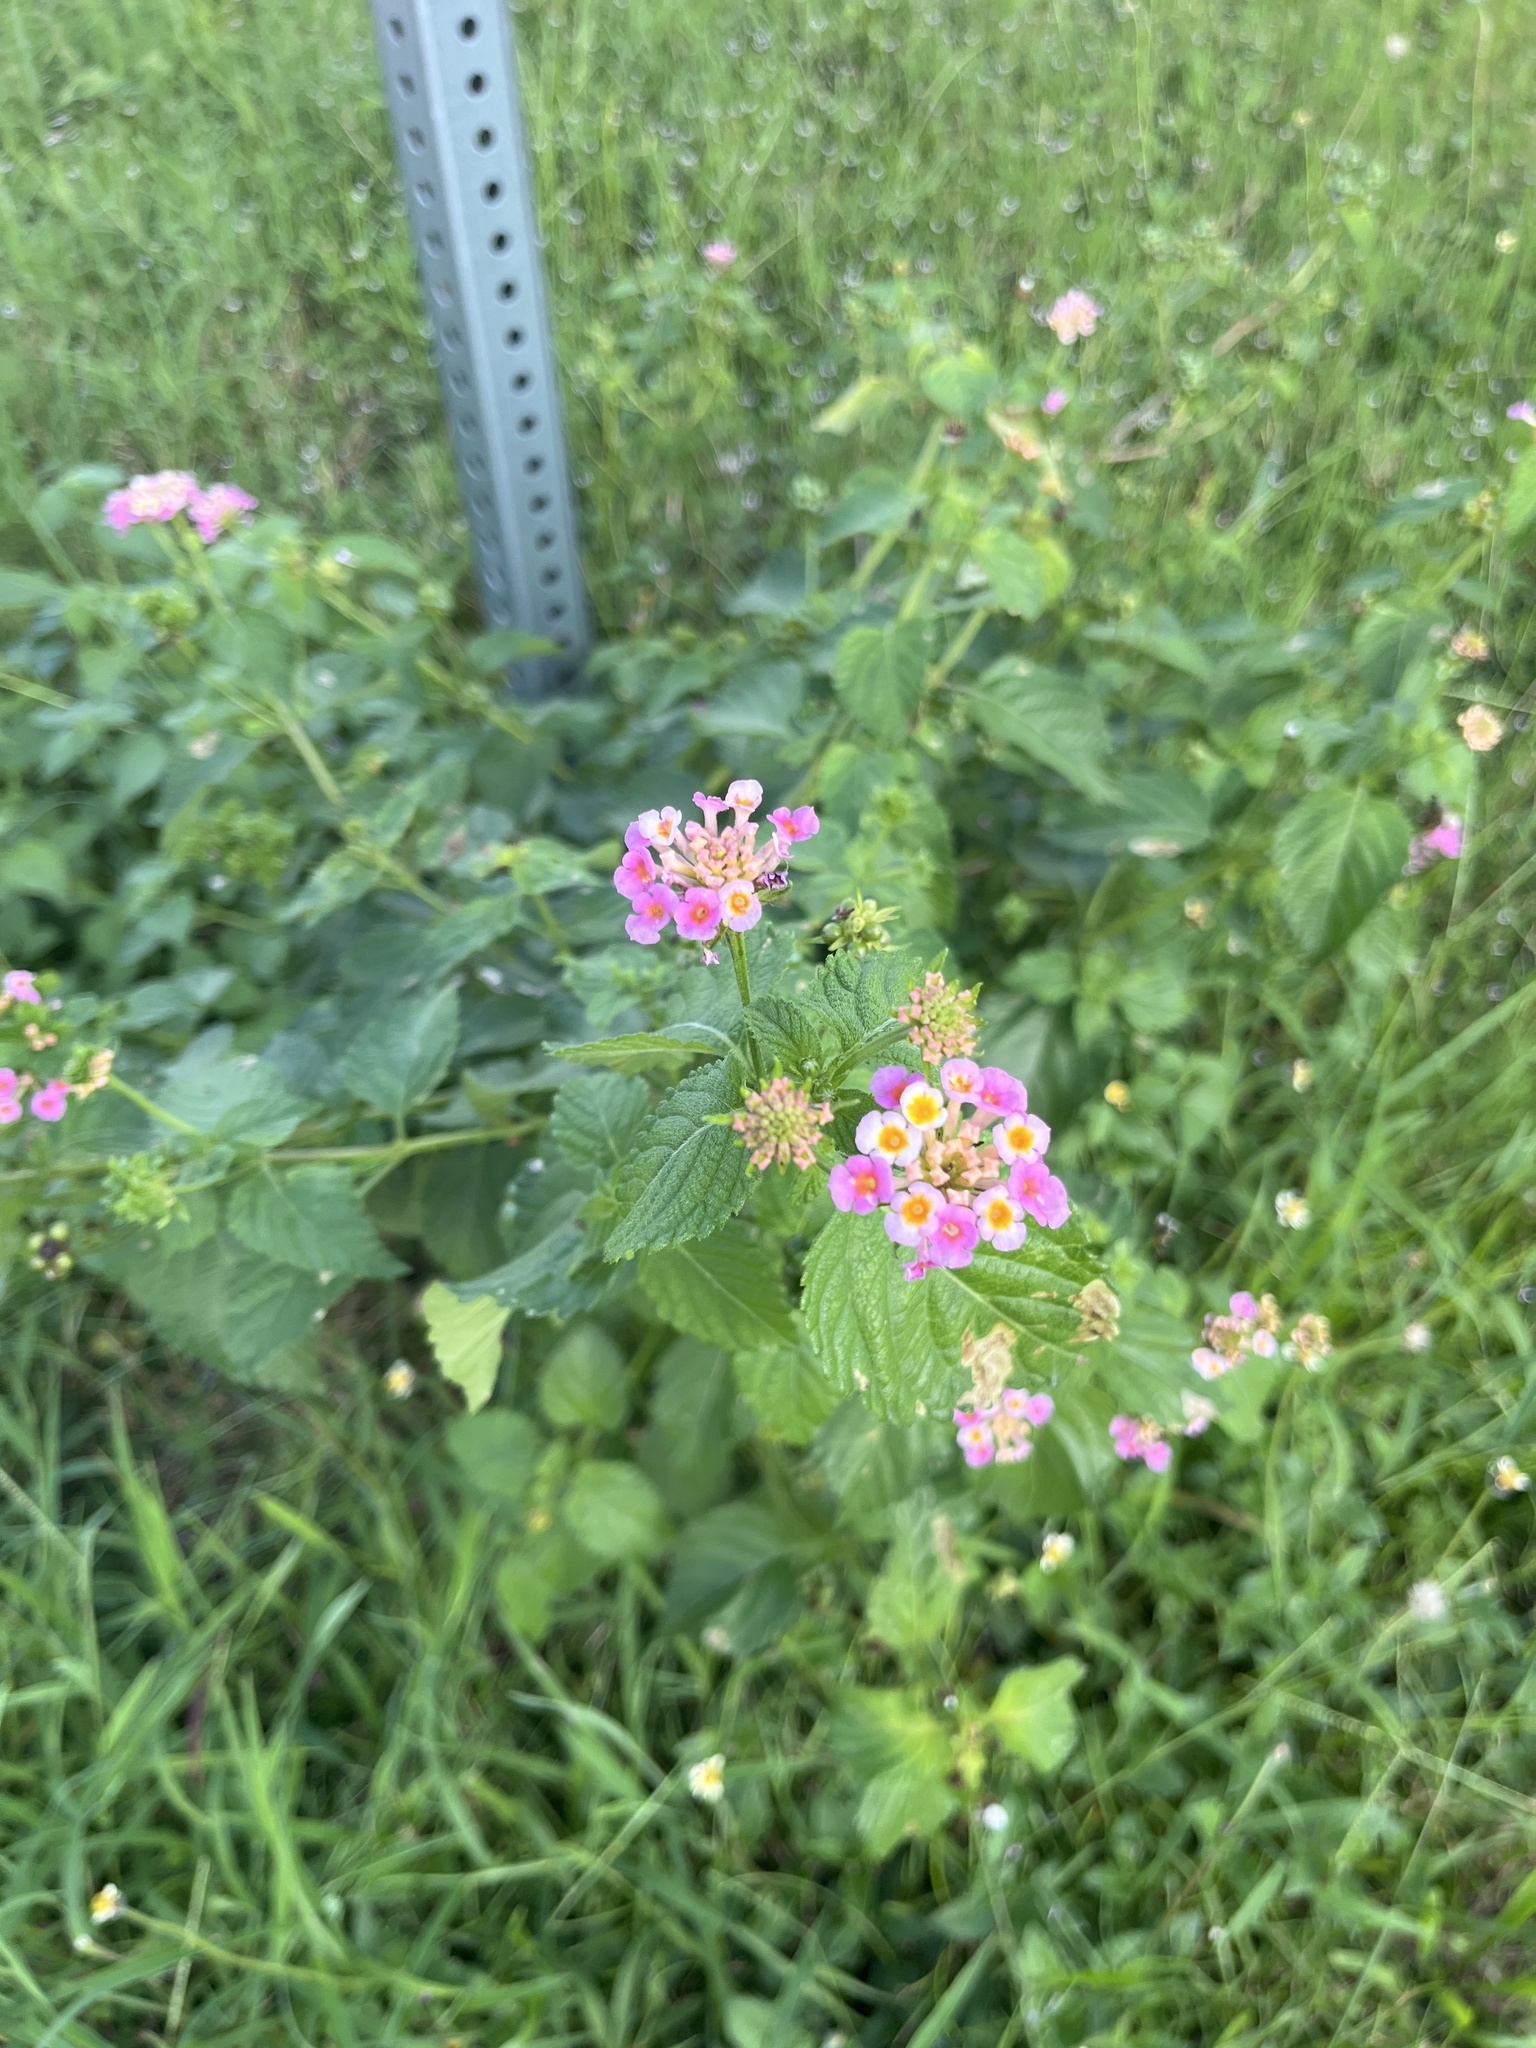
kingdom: Plantae
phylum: Tracheophyta
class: Magnoliopsida
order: Lamiales
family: Verbenaceae
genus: Lantana
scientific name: Lantana strigocamara
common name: Lantana
